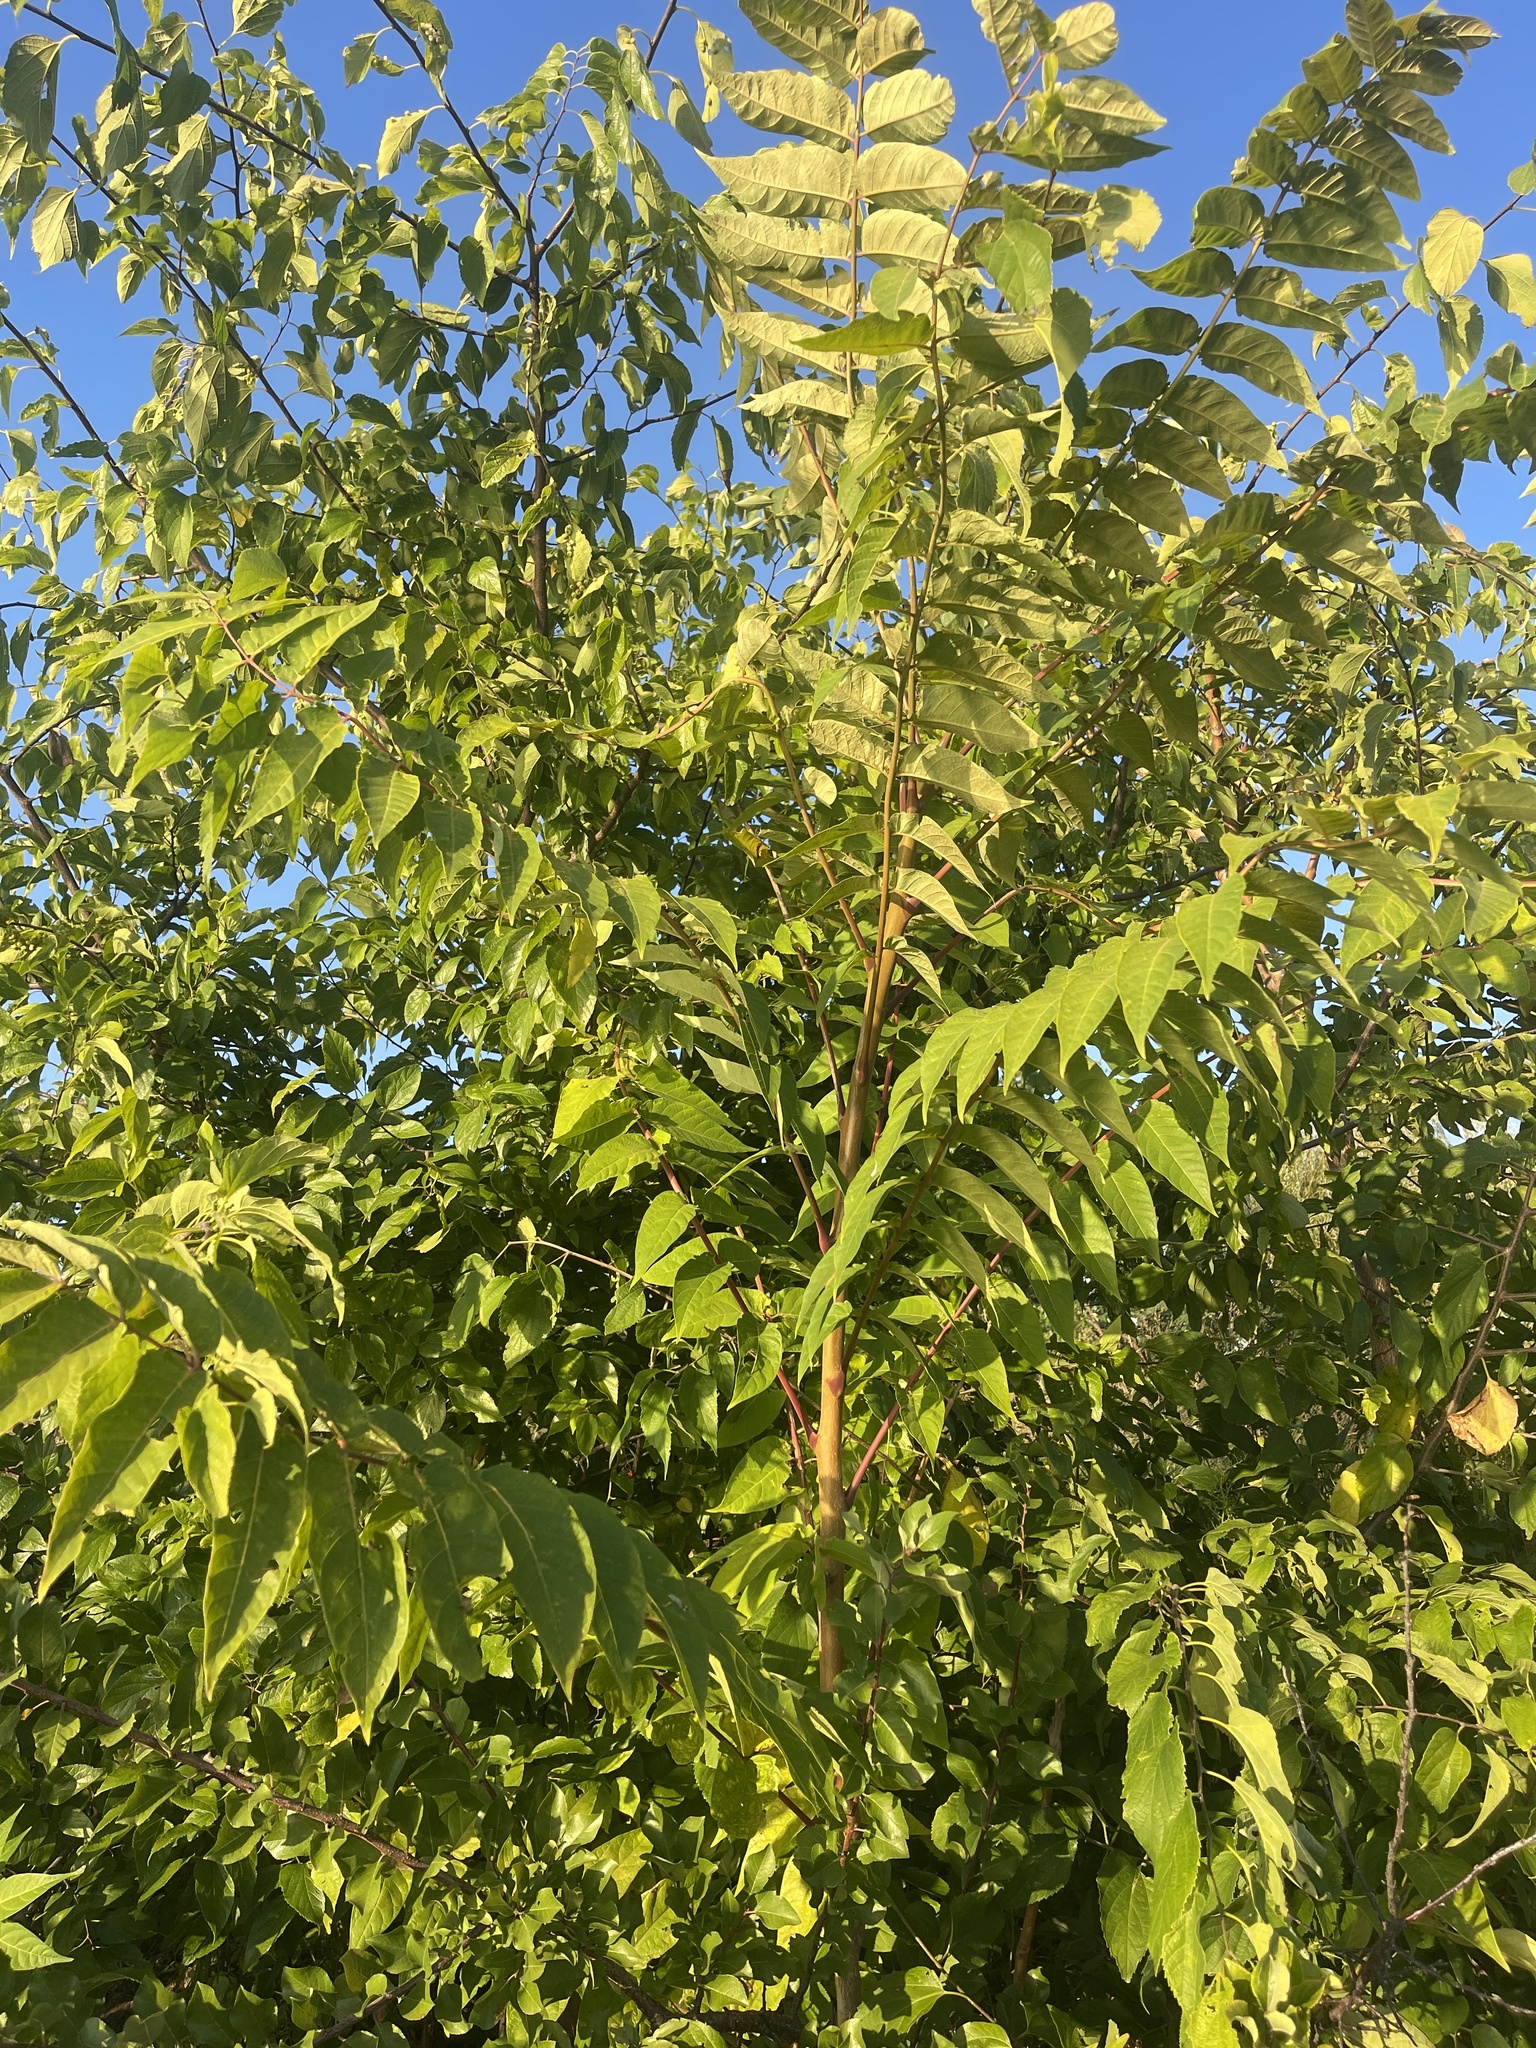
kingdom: Plantae
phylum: Tracheophyta
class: Magnoliopsida
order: Sapindales
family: Simaroubaceae
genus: Ailanthus
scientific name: Ailanthus altissima
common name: Tree-of-heaven
